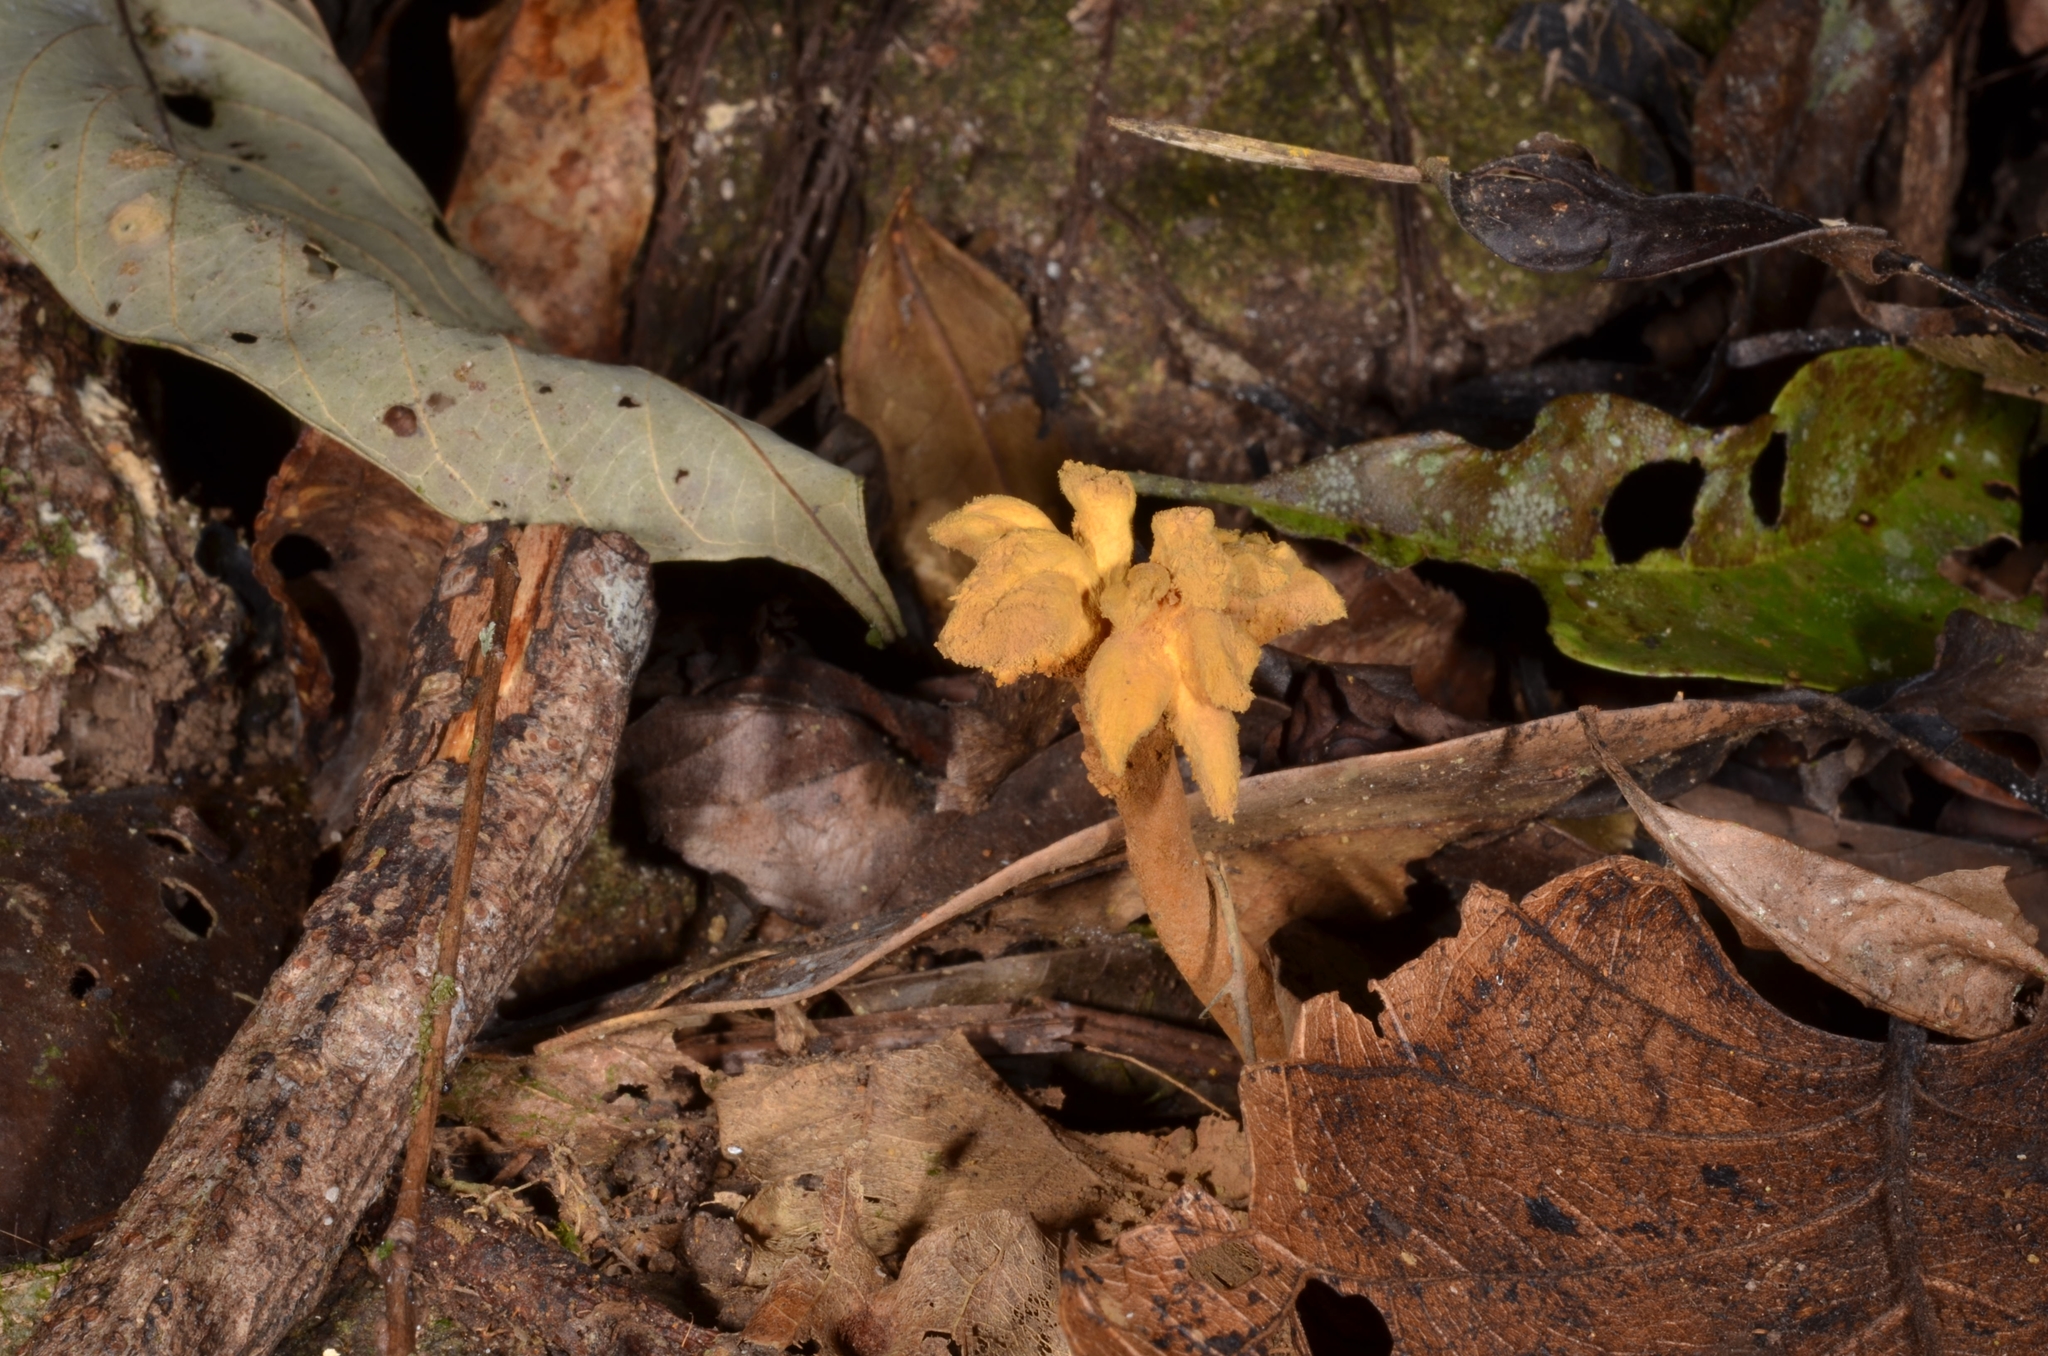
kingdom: Fungi
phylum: Ascomycota
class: Eurotiomycetes
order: Eurotiales
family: Aspergillaceae
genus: Dendrosphaera
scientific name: Dendrosphaera eberhardtii
